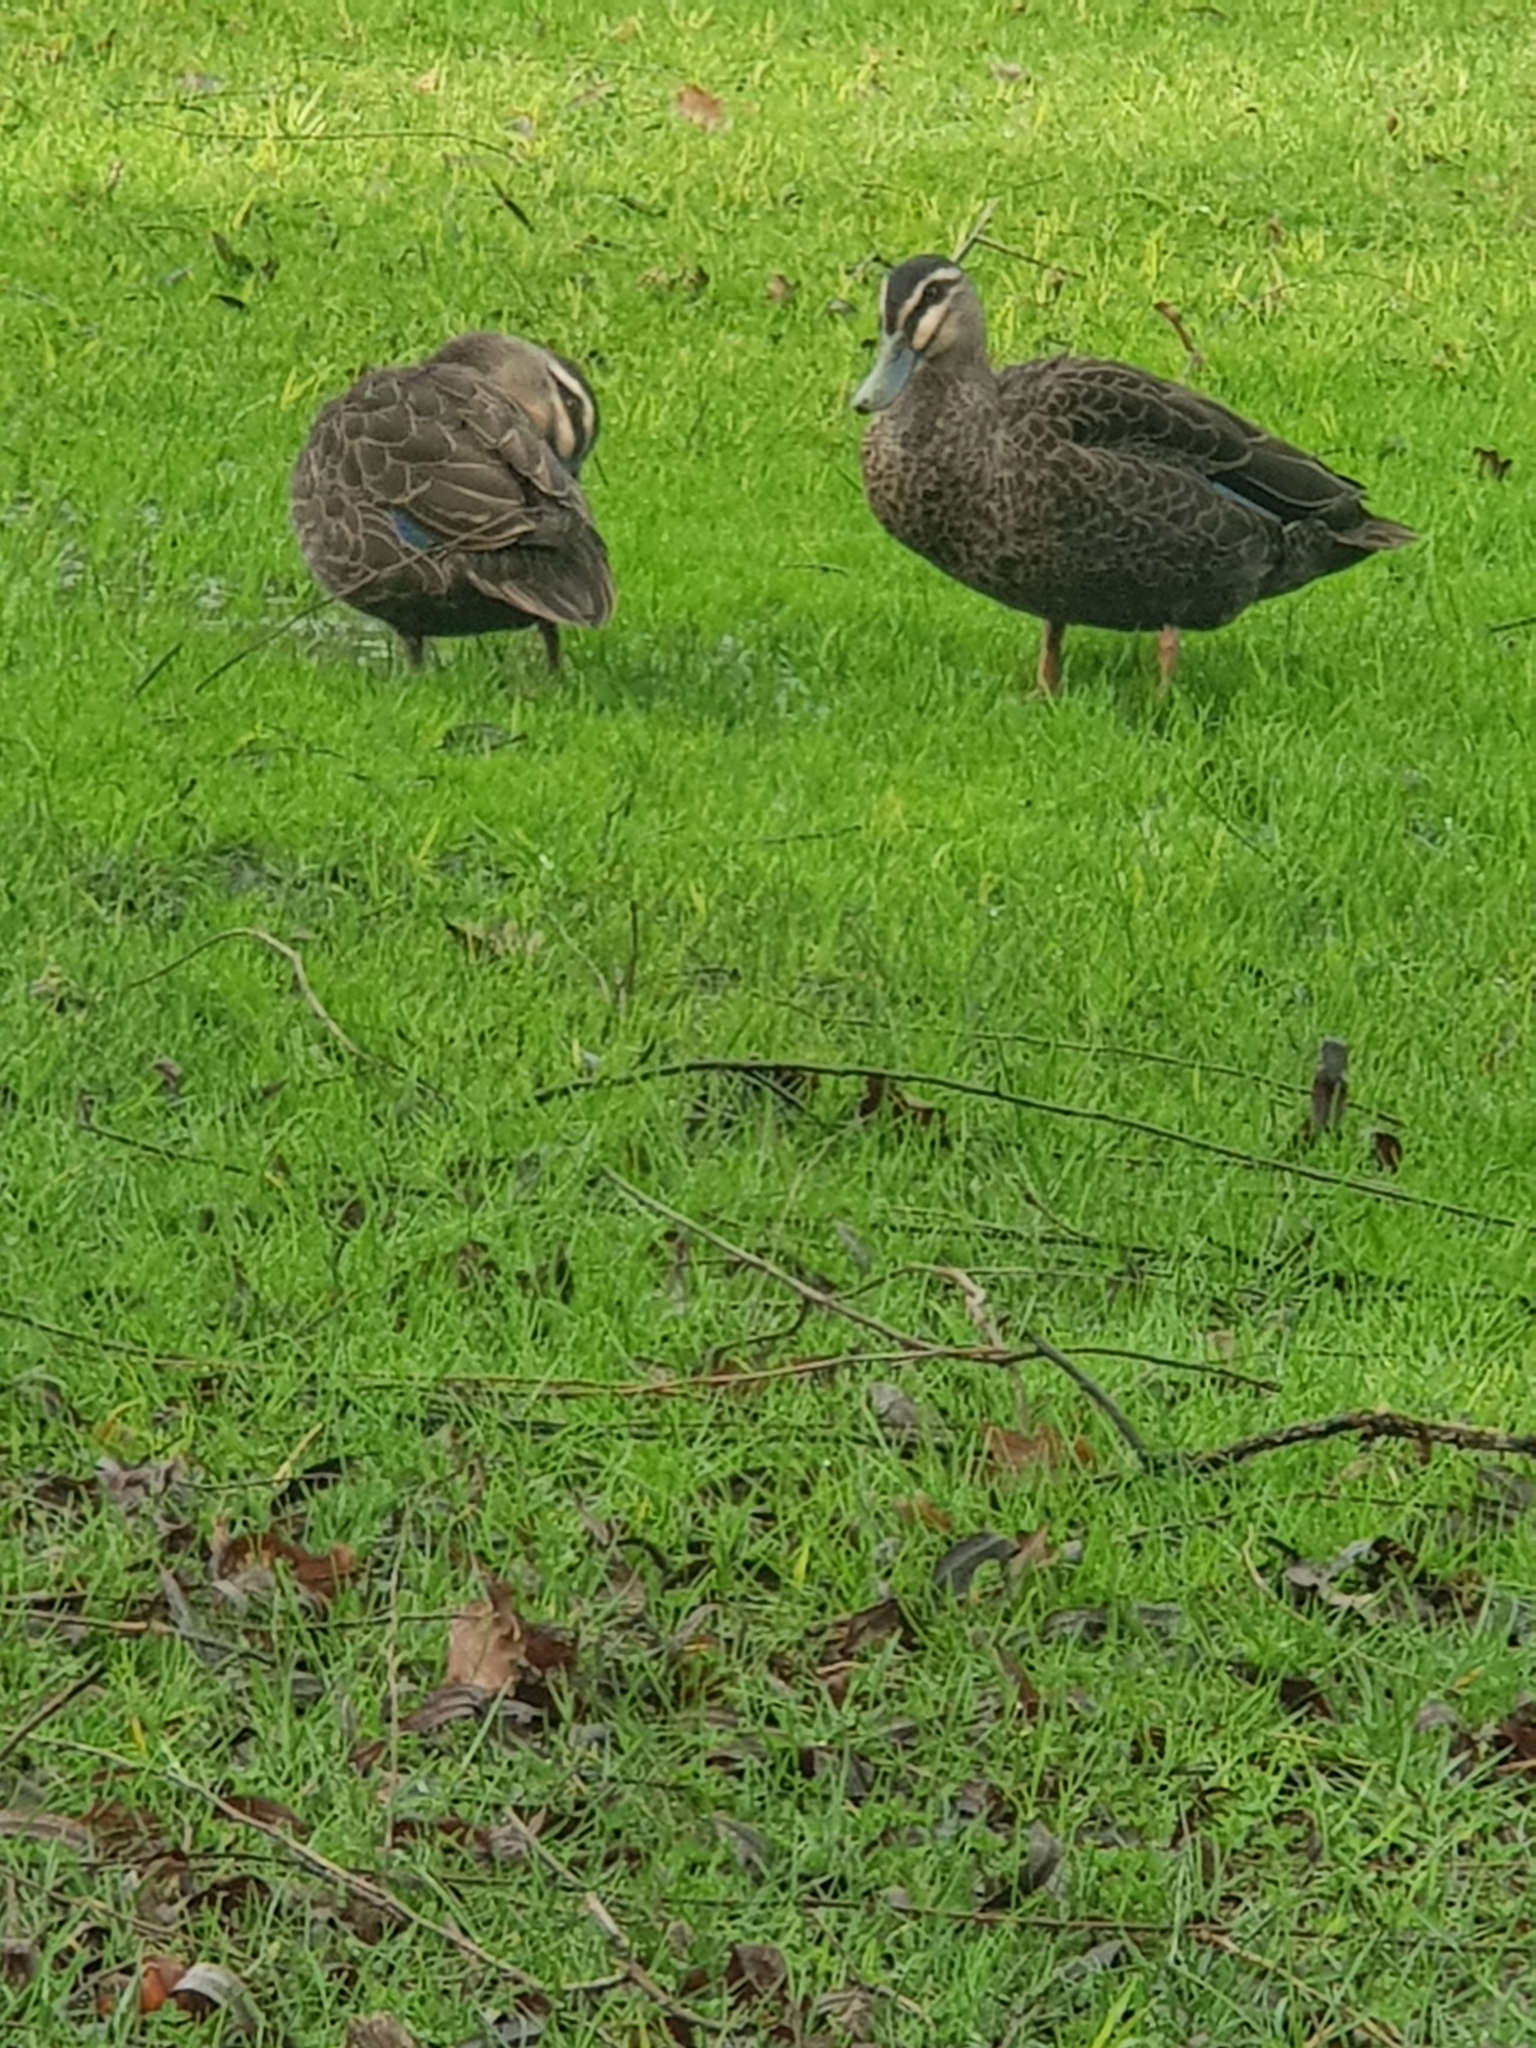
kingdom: Animalia
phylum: Chordata
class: Aves
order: Anseriformes
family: Anatidae
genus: Anas
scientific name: Anas superciliosa
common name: Pacific black duck
